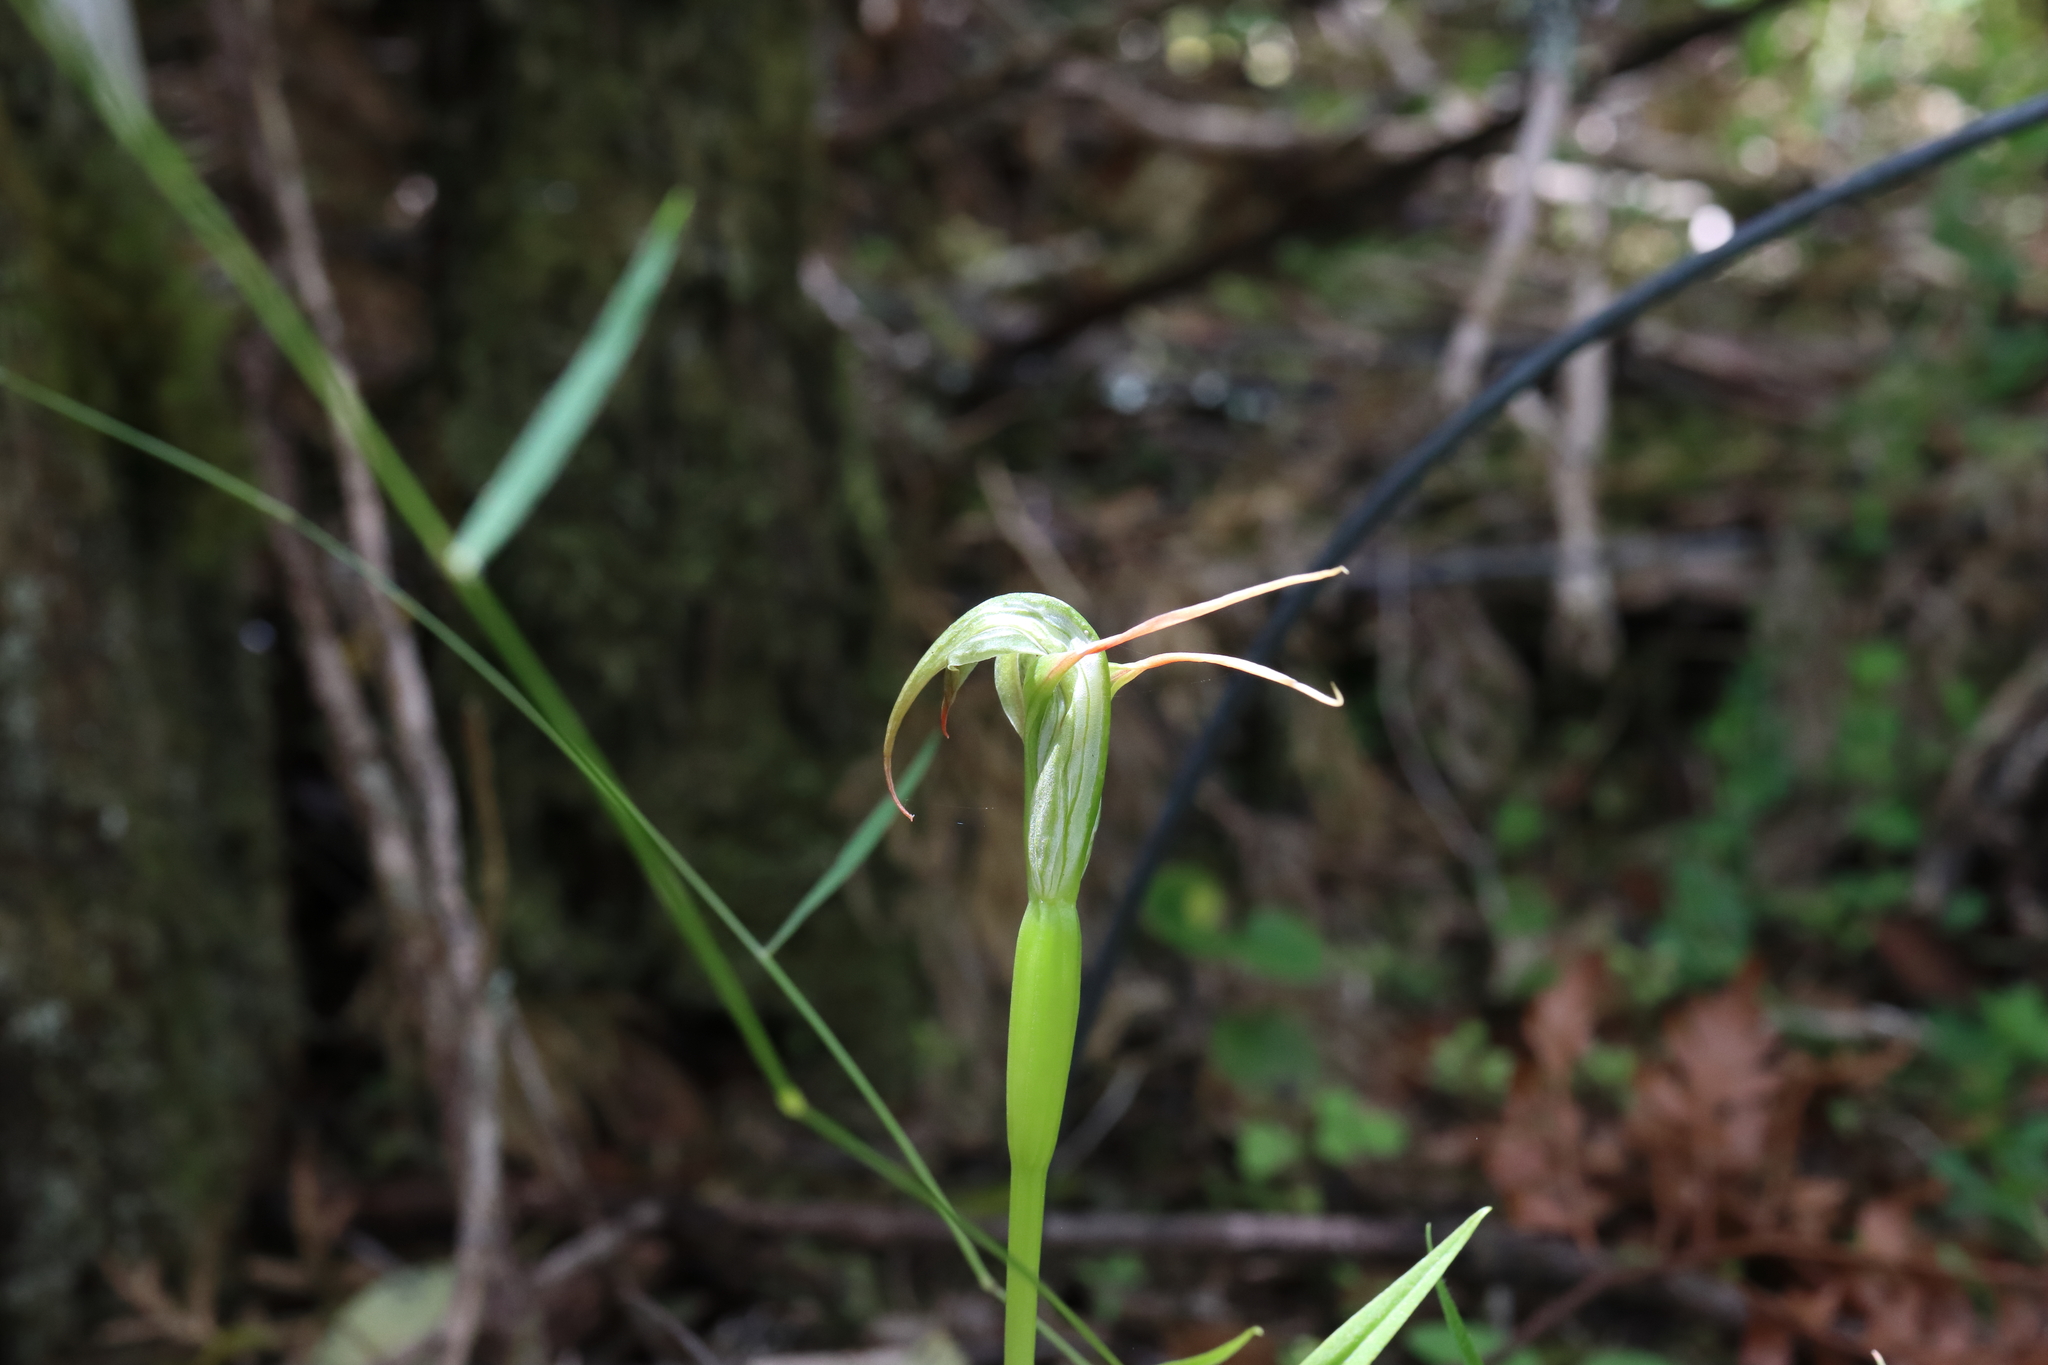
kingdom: Plantae
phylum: Tracheophyta
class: Liliopsida
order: Asparagales
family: Orchidaceae
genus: Pterostylis
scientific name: Pterostylis patens
